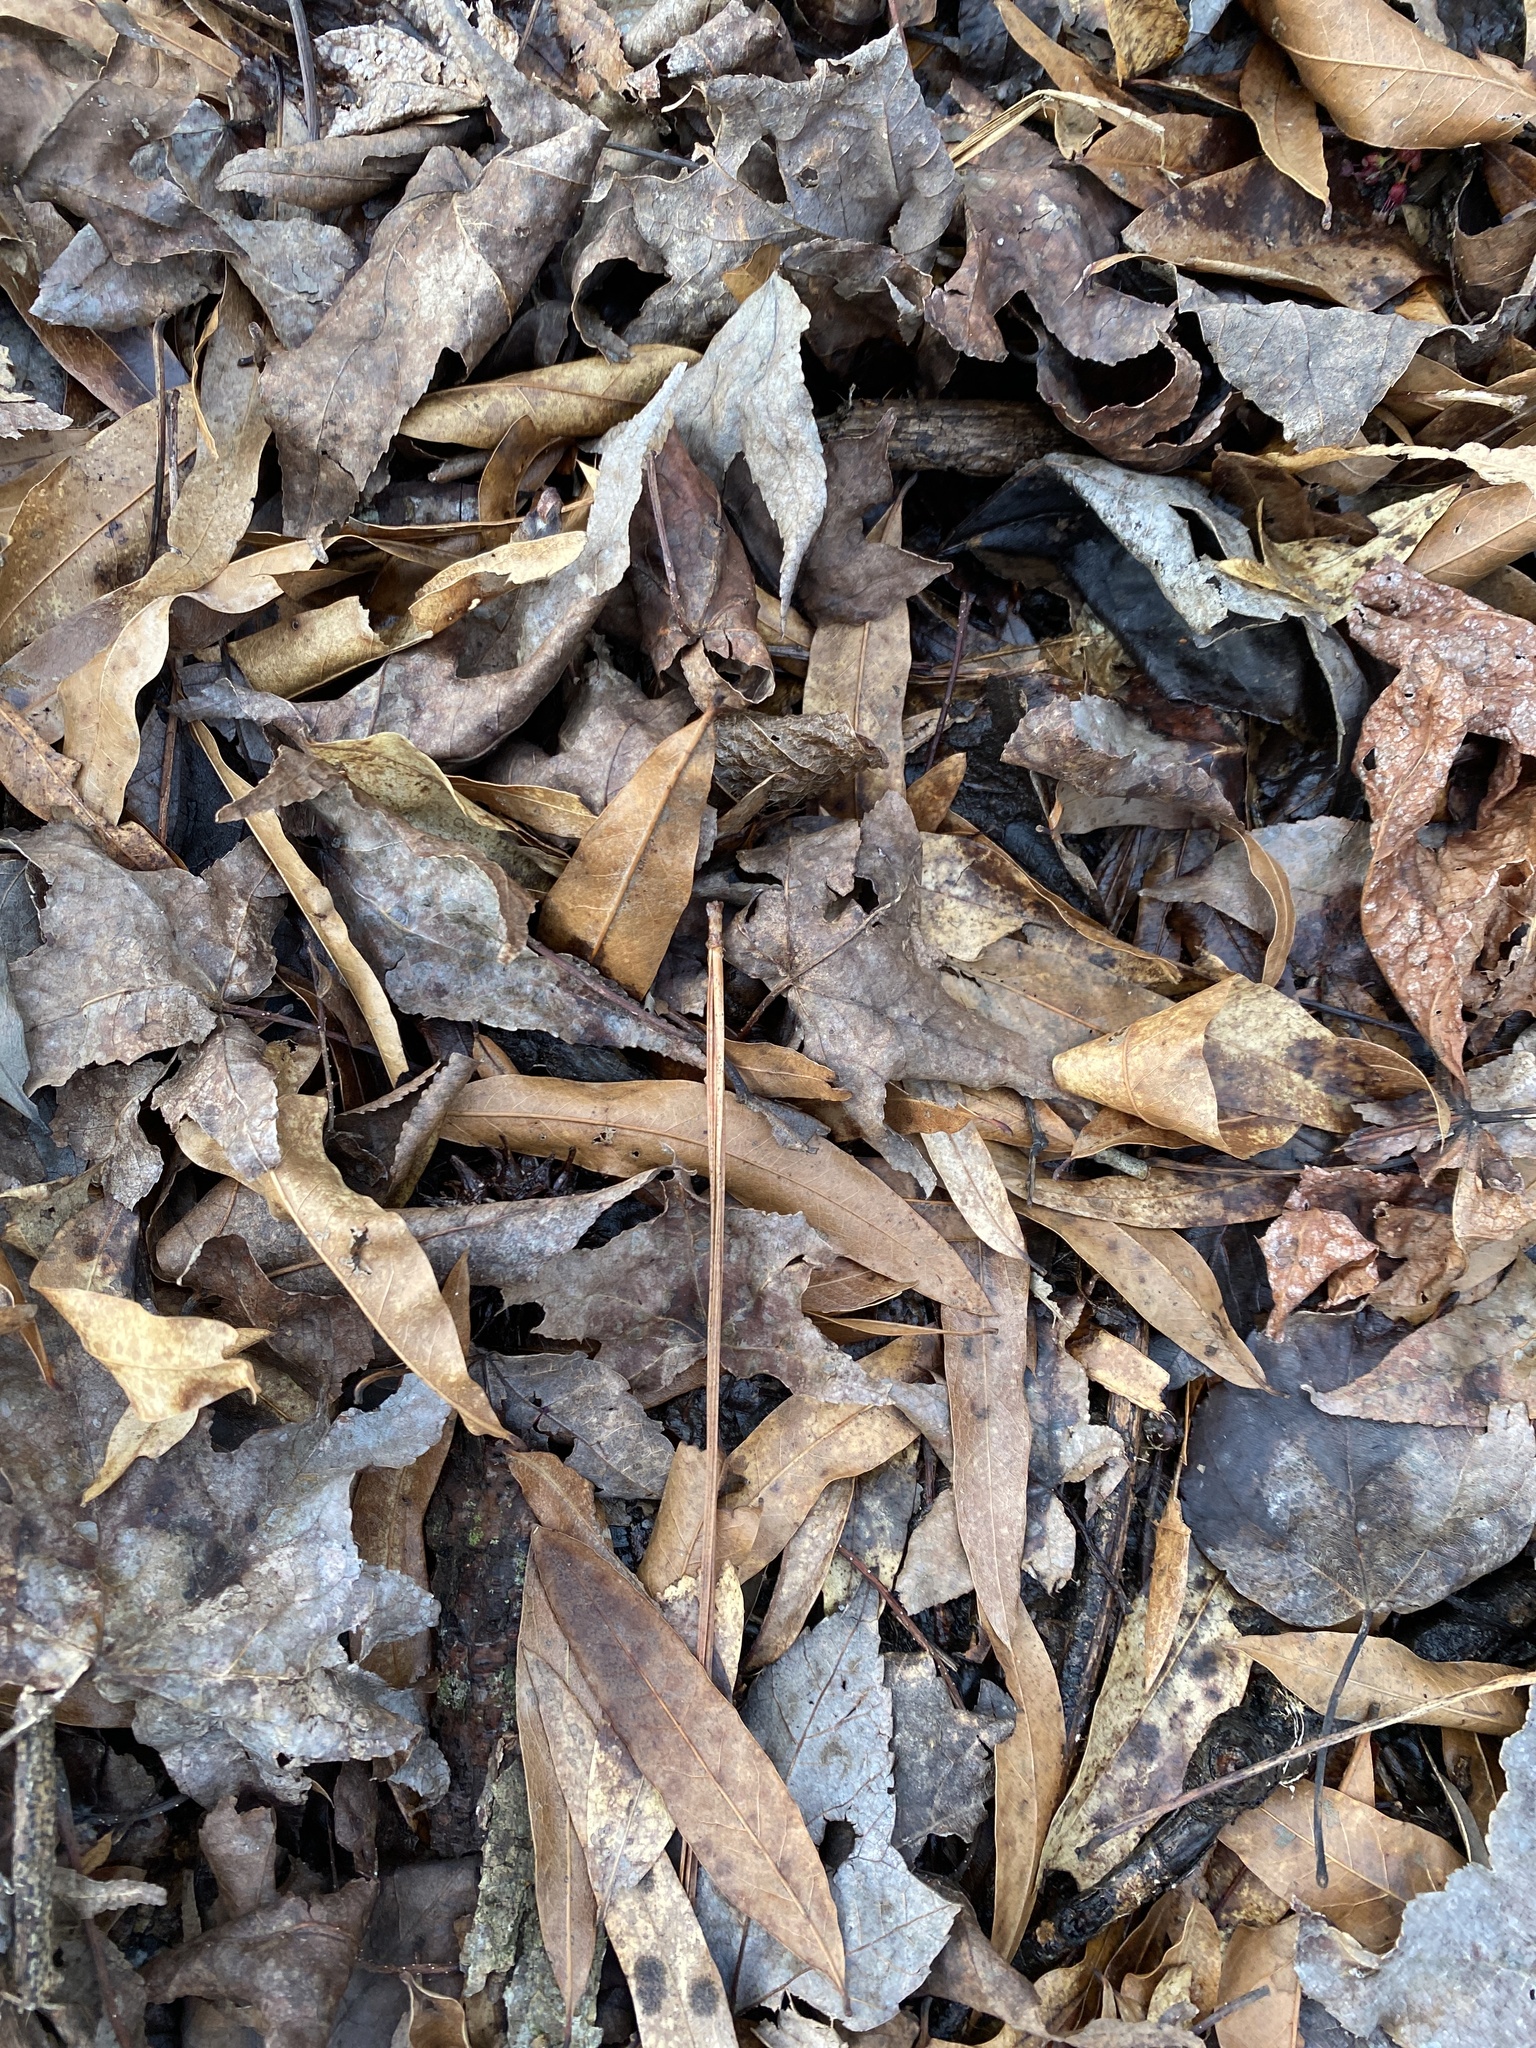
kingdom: Plantae
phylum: Tracheophyta
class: Magnoliopsida
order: Fagales
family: Fagaceae
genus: Quercus
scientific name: Quercus phellos
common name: Willow oak
